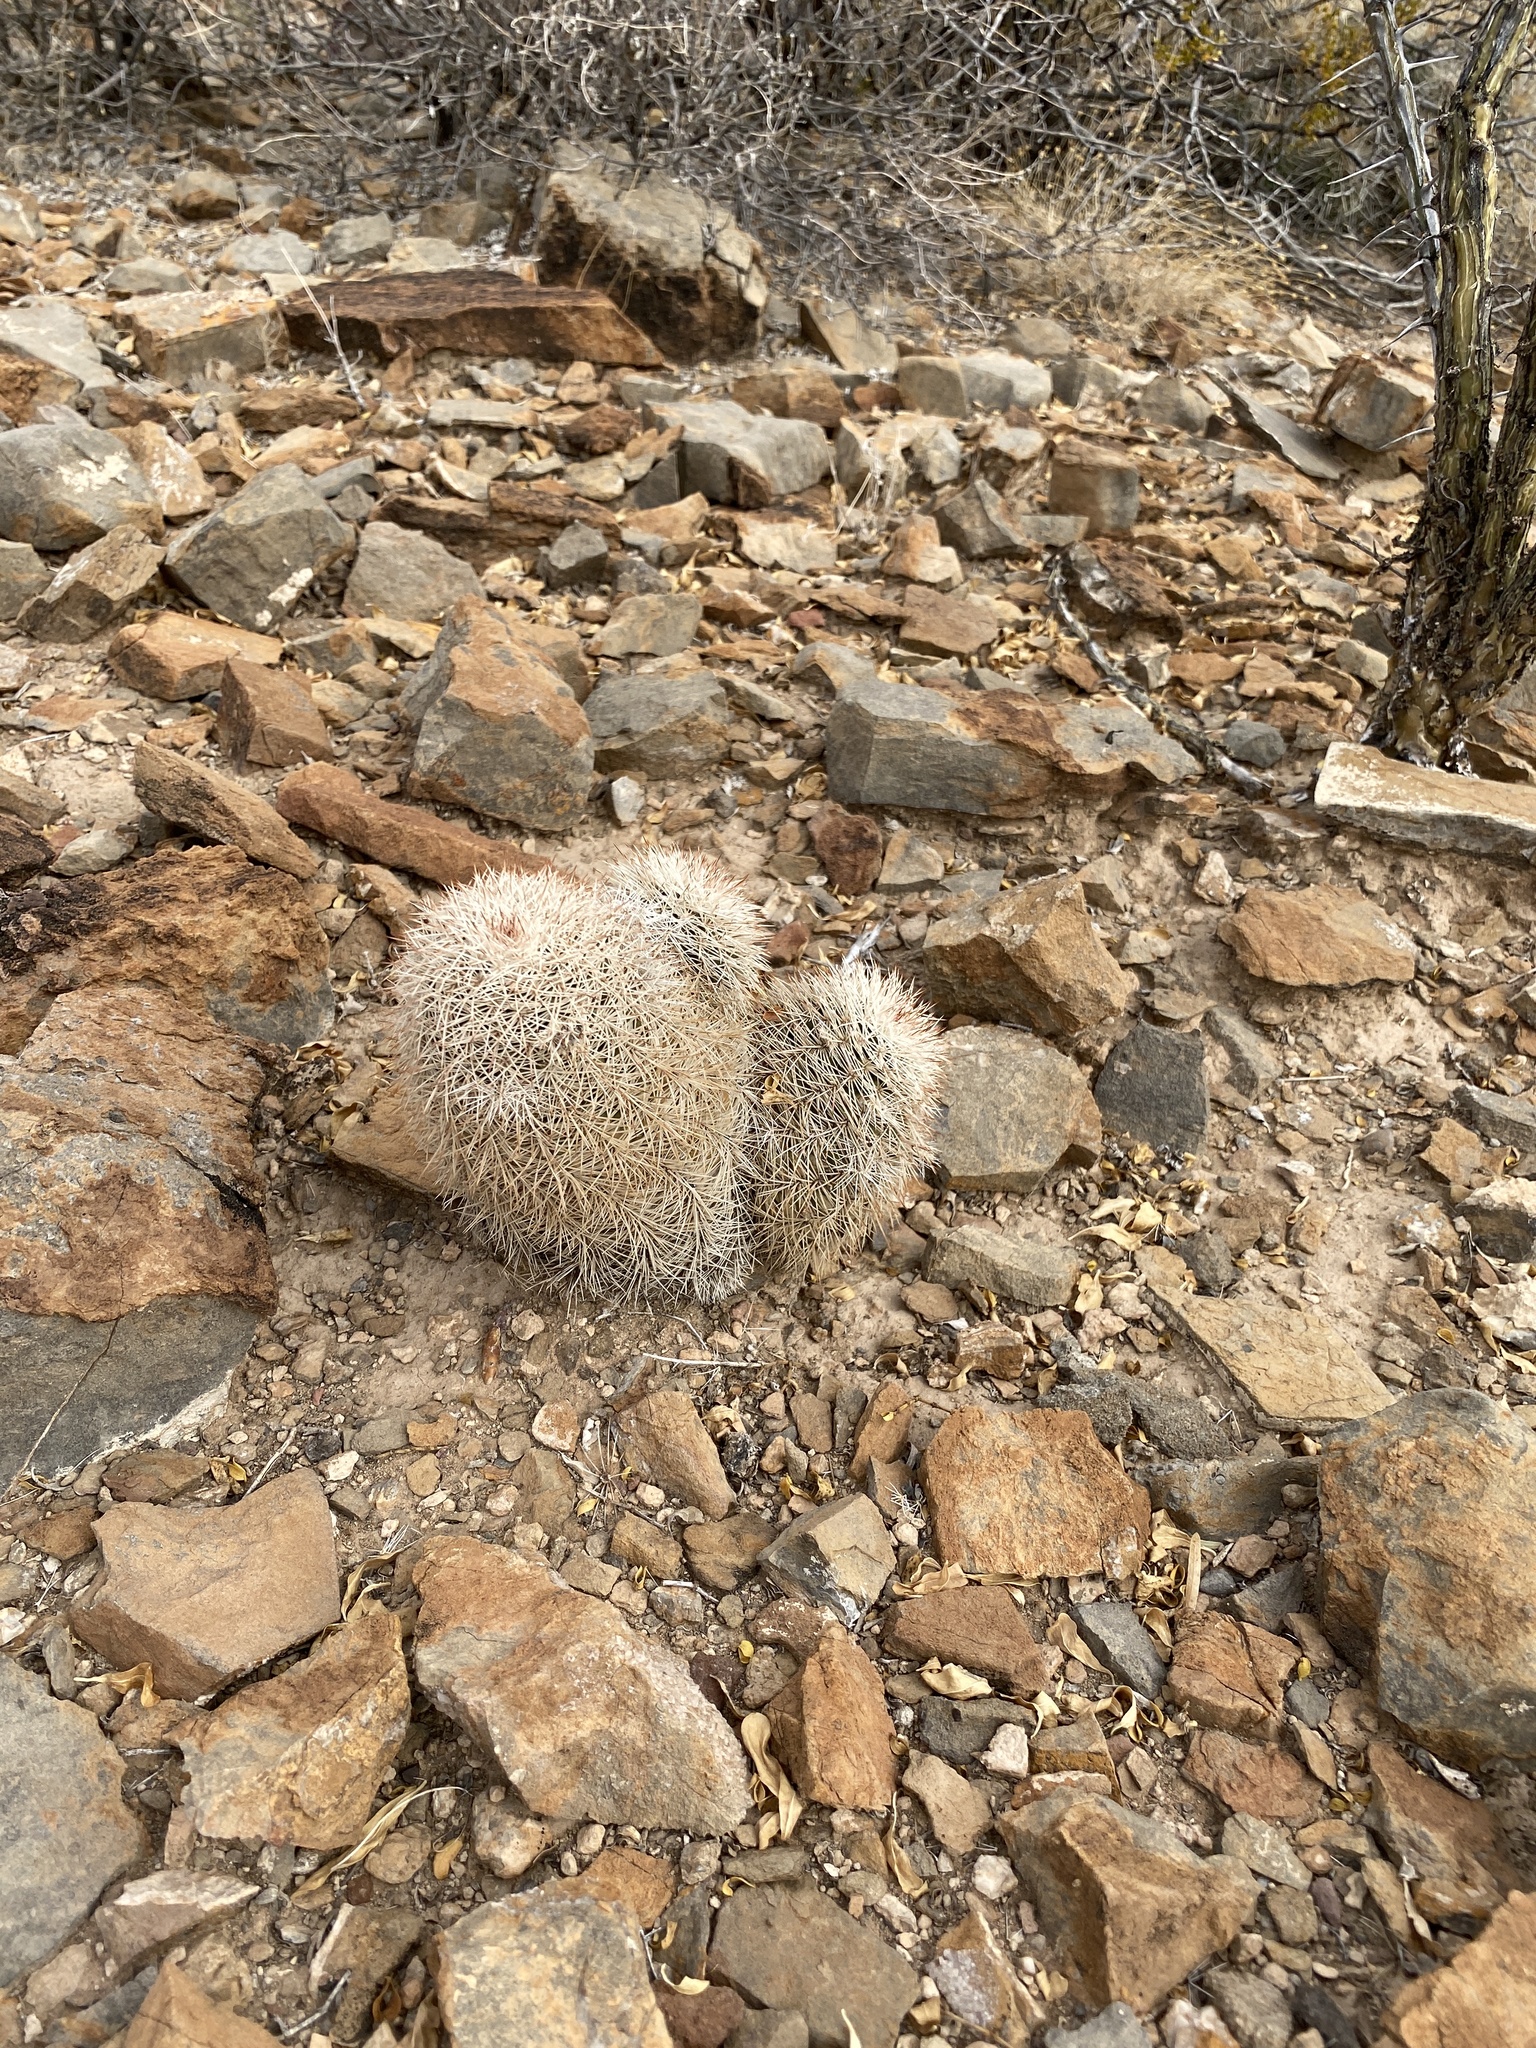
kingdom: Plantae
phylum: Tracheophyta
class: Magnoliopsida
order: Caryophyllales
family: Cactaceae
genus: Echinocereus
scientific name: Echinocereus dasyacanthus
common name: Spiny hedgehog cactus
